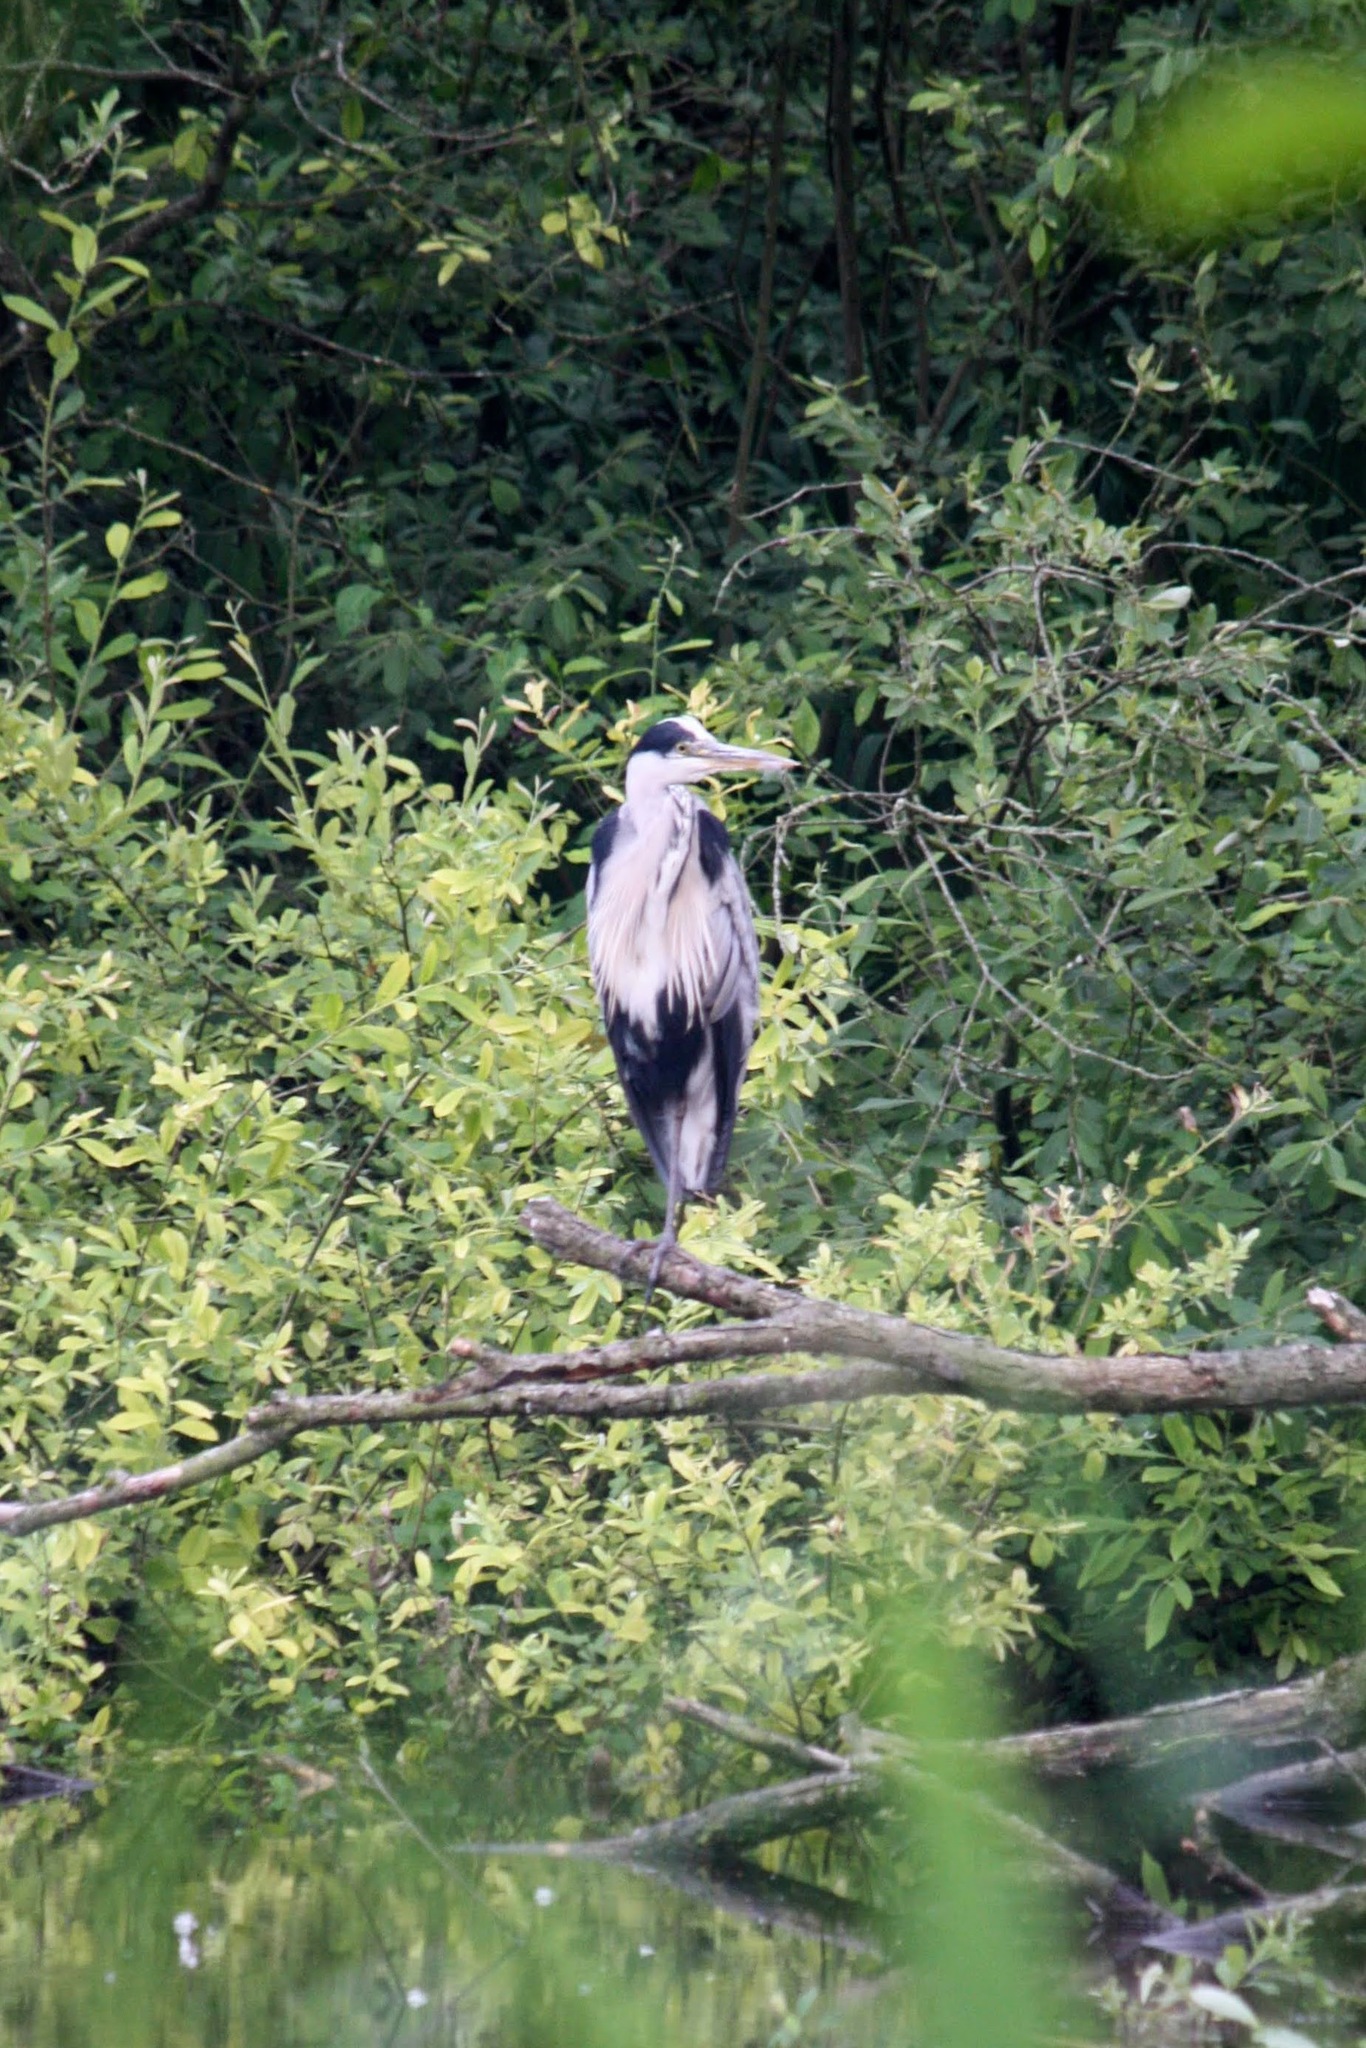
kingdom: Animalia
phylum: Chordata
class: Aves
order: Pelecaniformes
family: Ardeidae
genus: Ardea
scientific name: Ardea cinerea
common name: Grey heron
